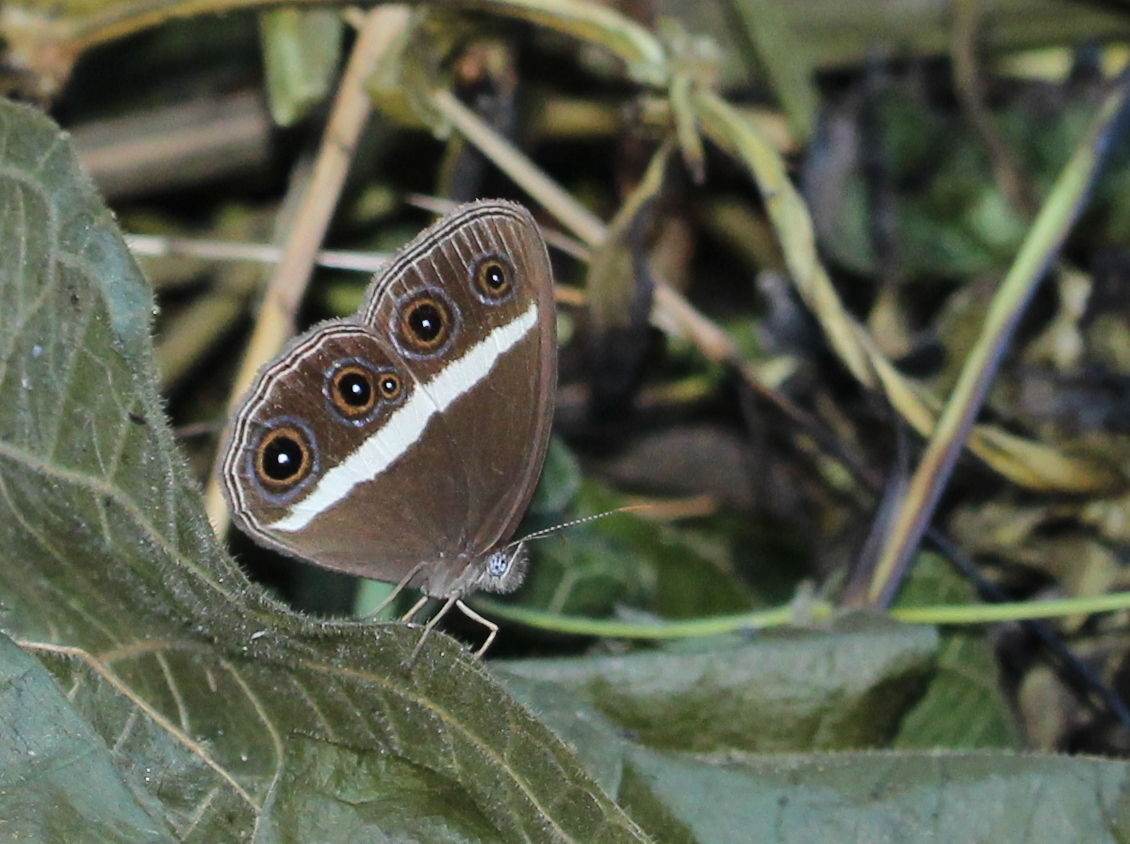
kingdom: Animalia
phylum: Arthropoda
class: Insecta
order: Lepidoptera
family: Nymphalidae
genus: Orsotriaena
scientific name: Orsotriaena medus
